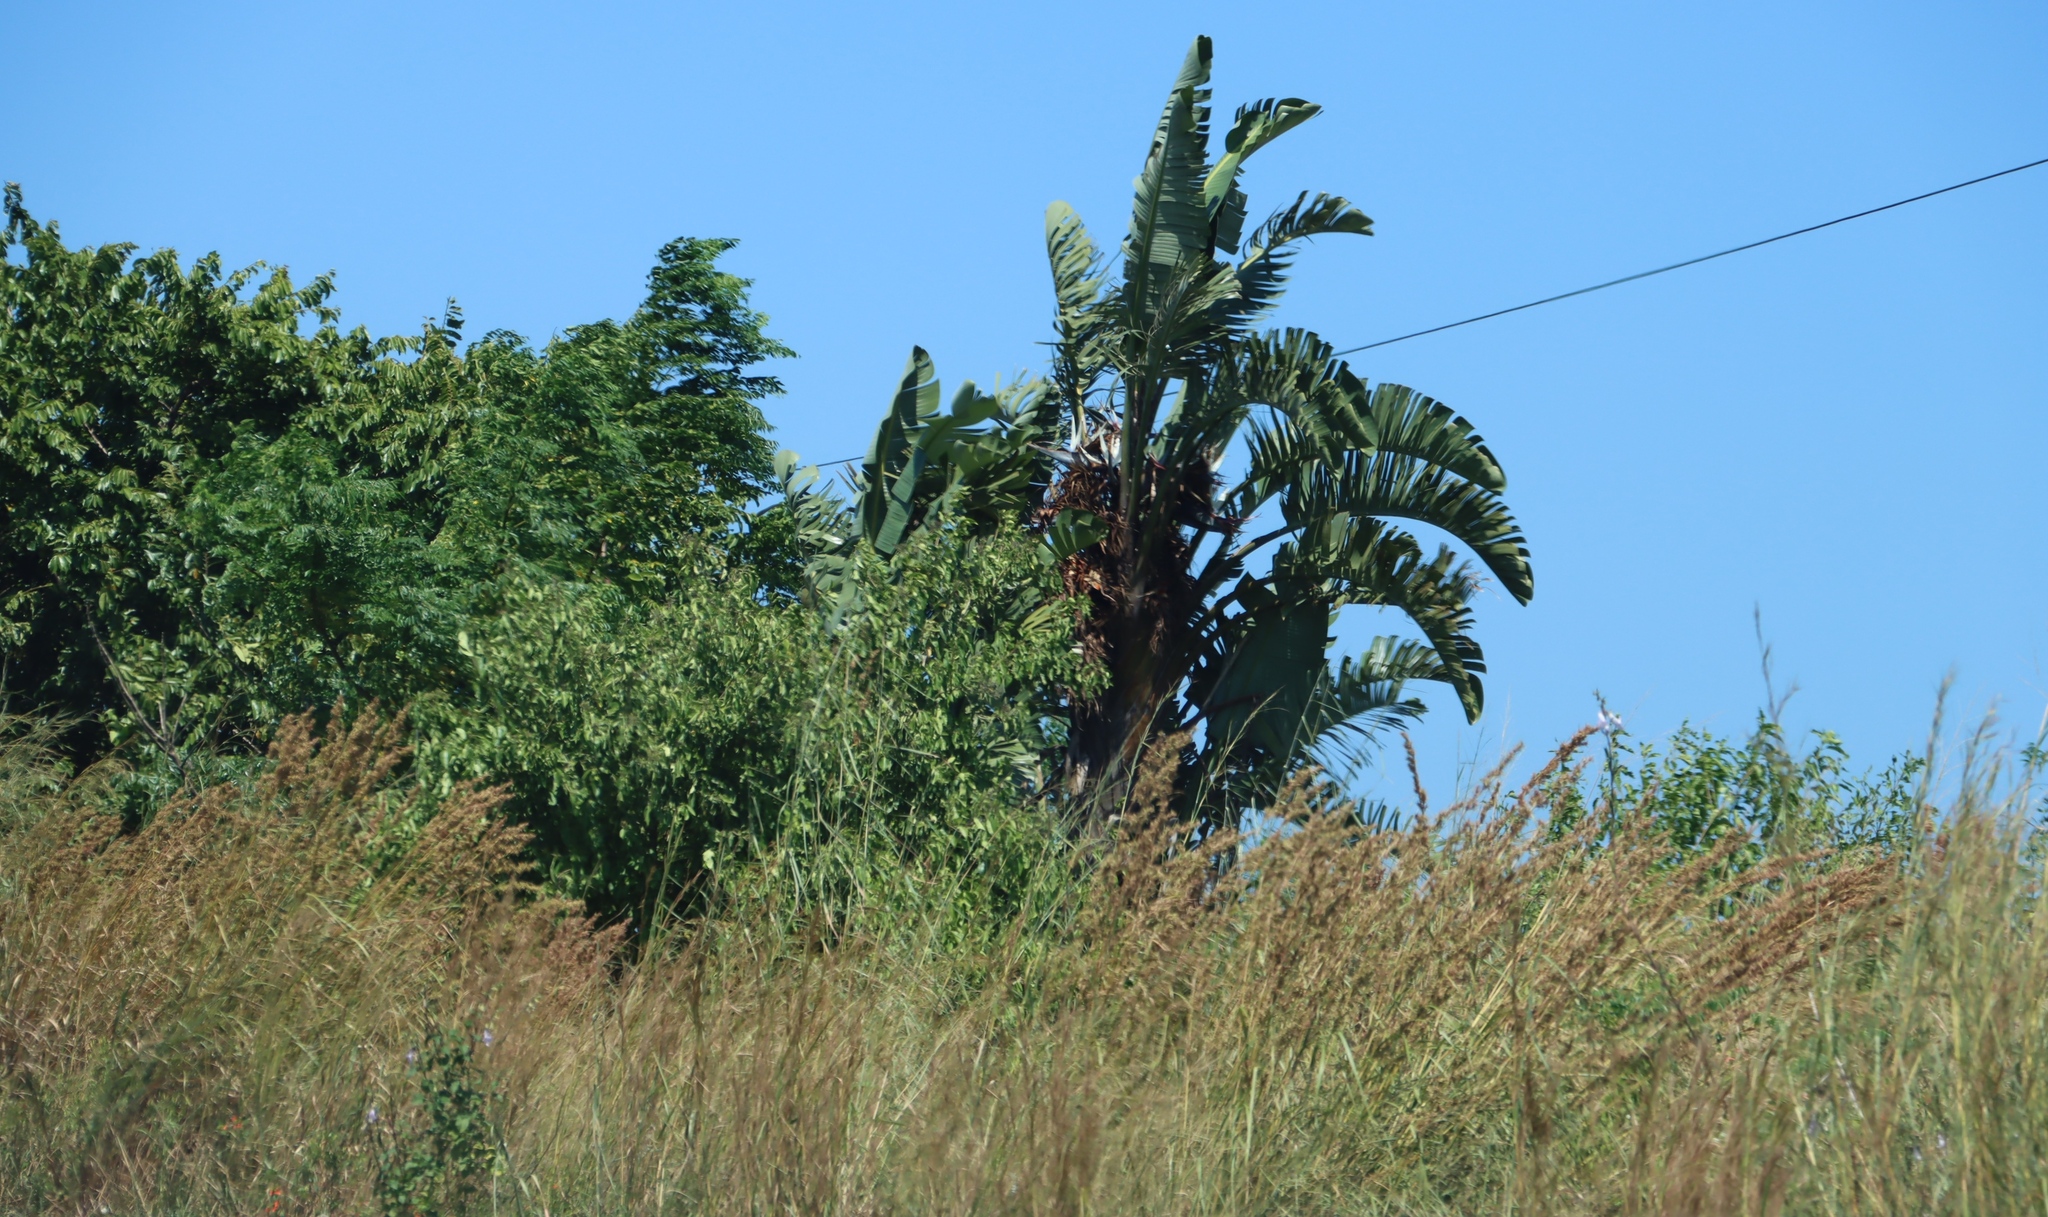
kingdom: Plantae
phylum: Tracheophyta
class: Liliopsida
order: Zingiberales
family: Strelitziaceae
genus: Strelitzia
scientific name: Strelitzia nicolai
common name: Bird-of-paradise tree
